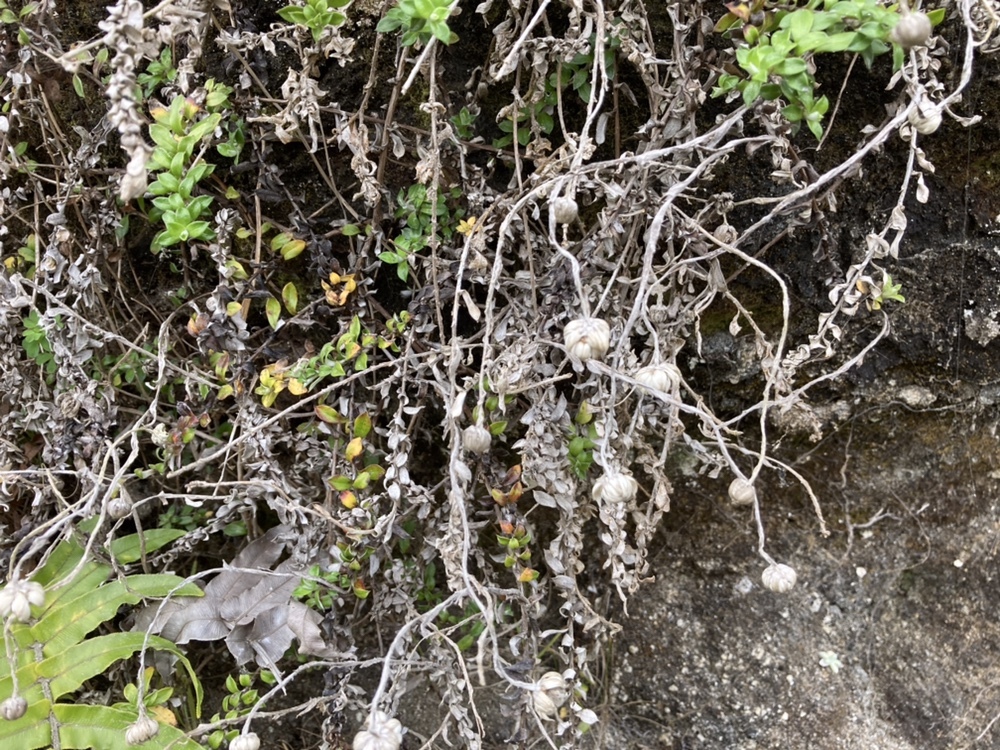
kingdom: Plantae
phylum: Tracheophyta
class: Magnoliopsida
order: Asterales
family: Asteraceae
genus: Anaphalioides
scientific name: Anaphalioides hookeri
